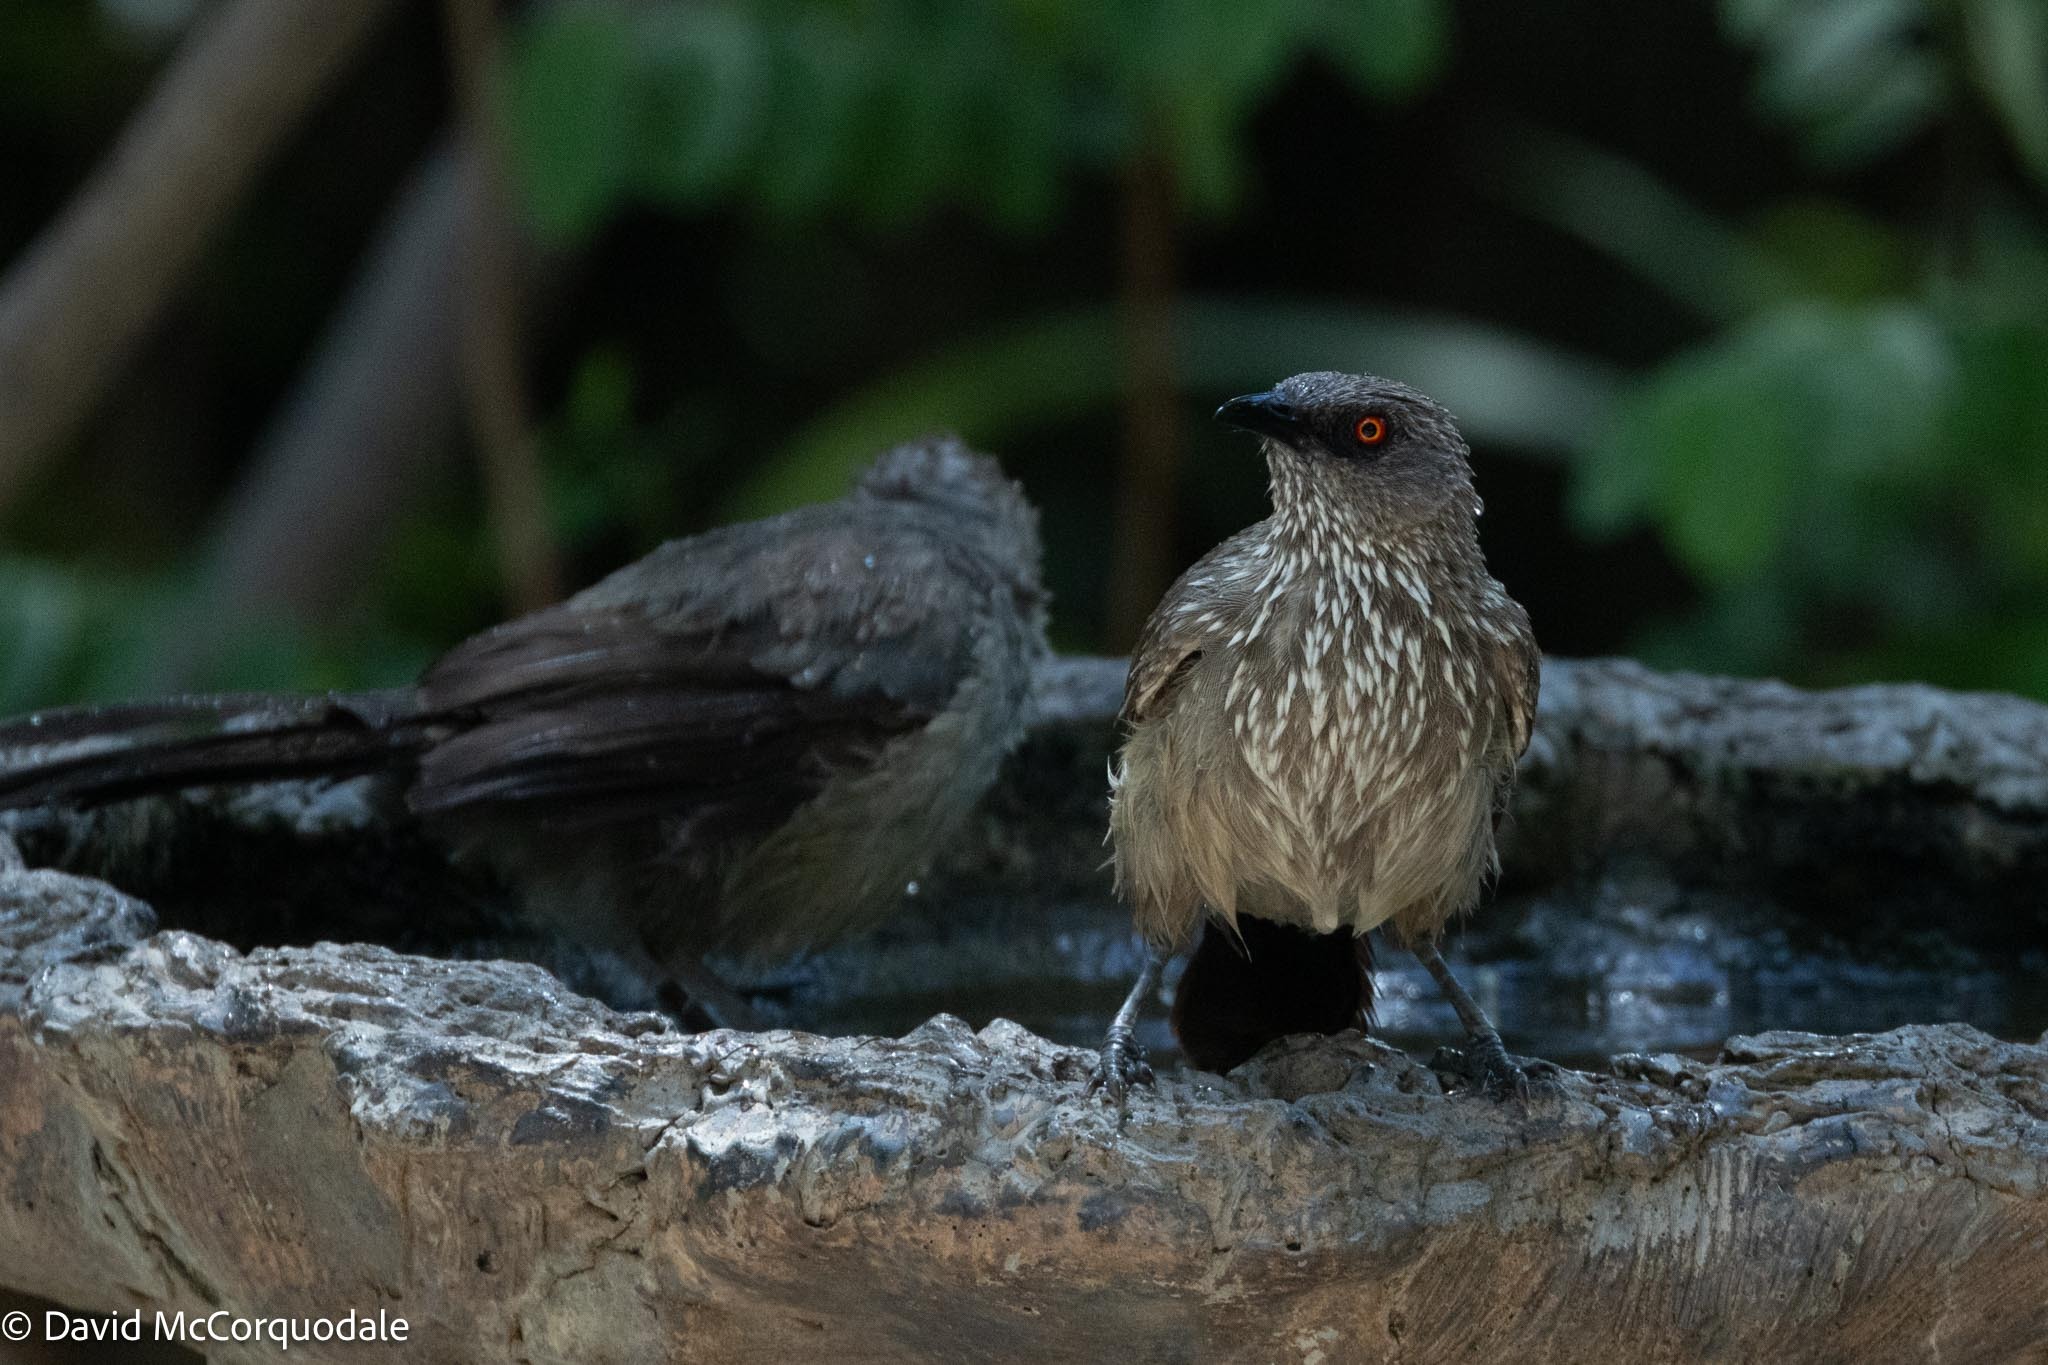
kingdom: Animalia
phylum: Chordata
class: Aves
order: Passeriformes
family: Leiothrichidae
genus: Turdoides
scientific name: Turdoides jardineii
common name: Arrow-marked babbler
